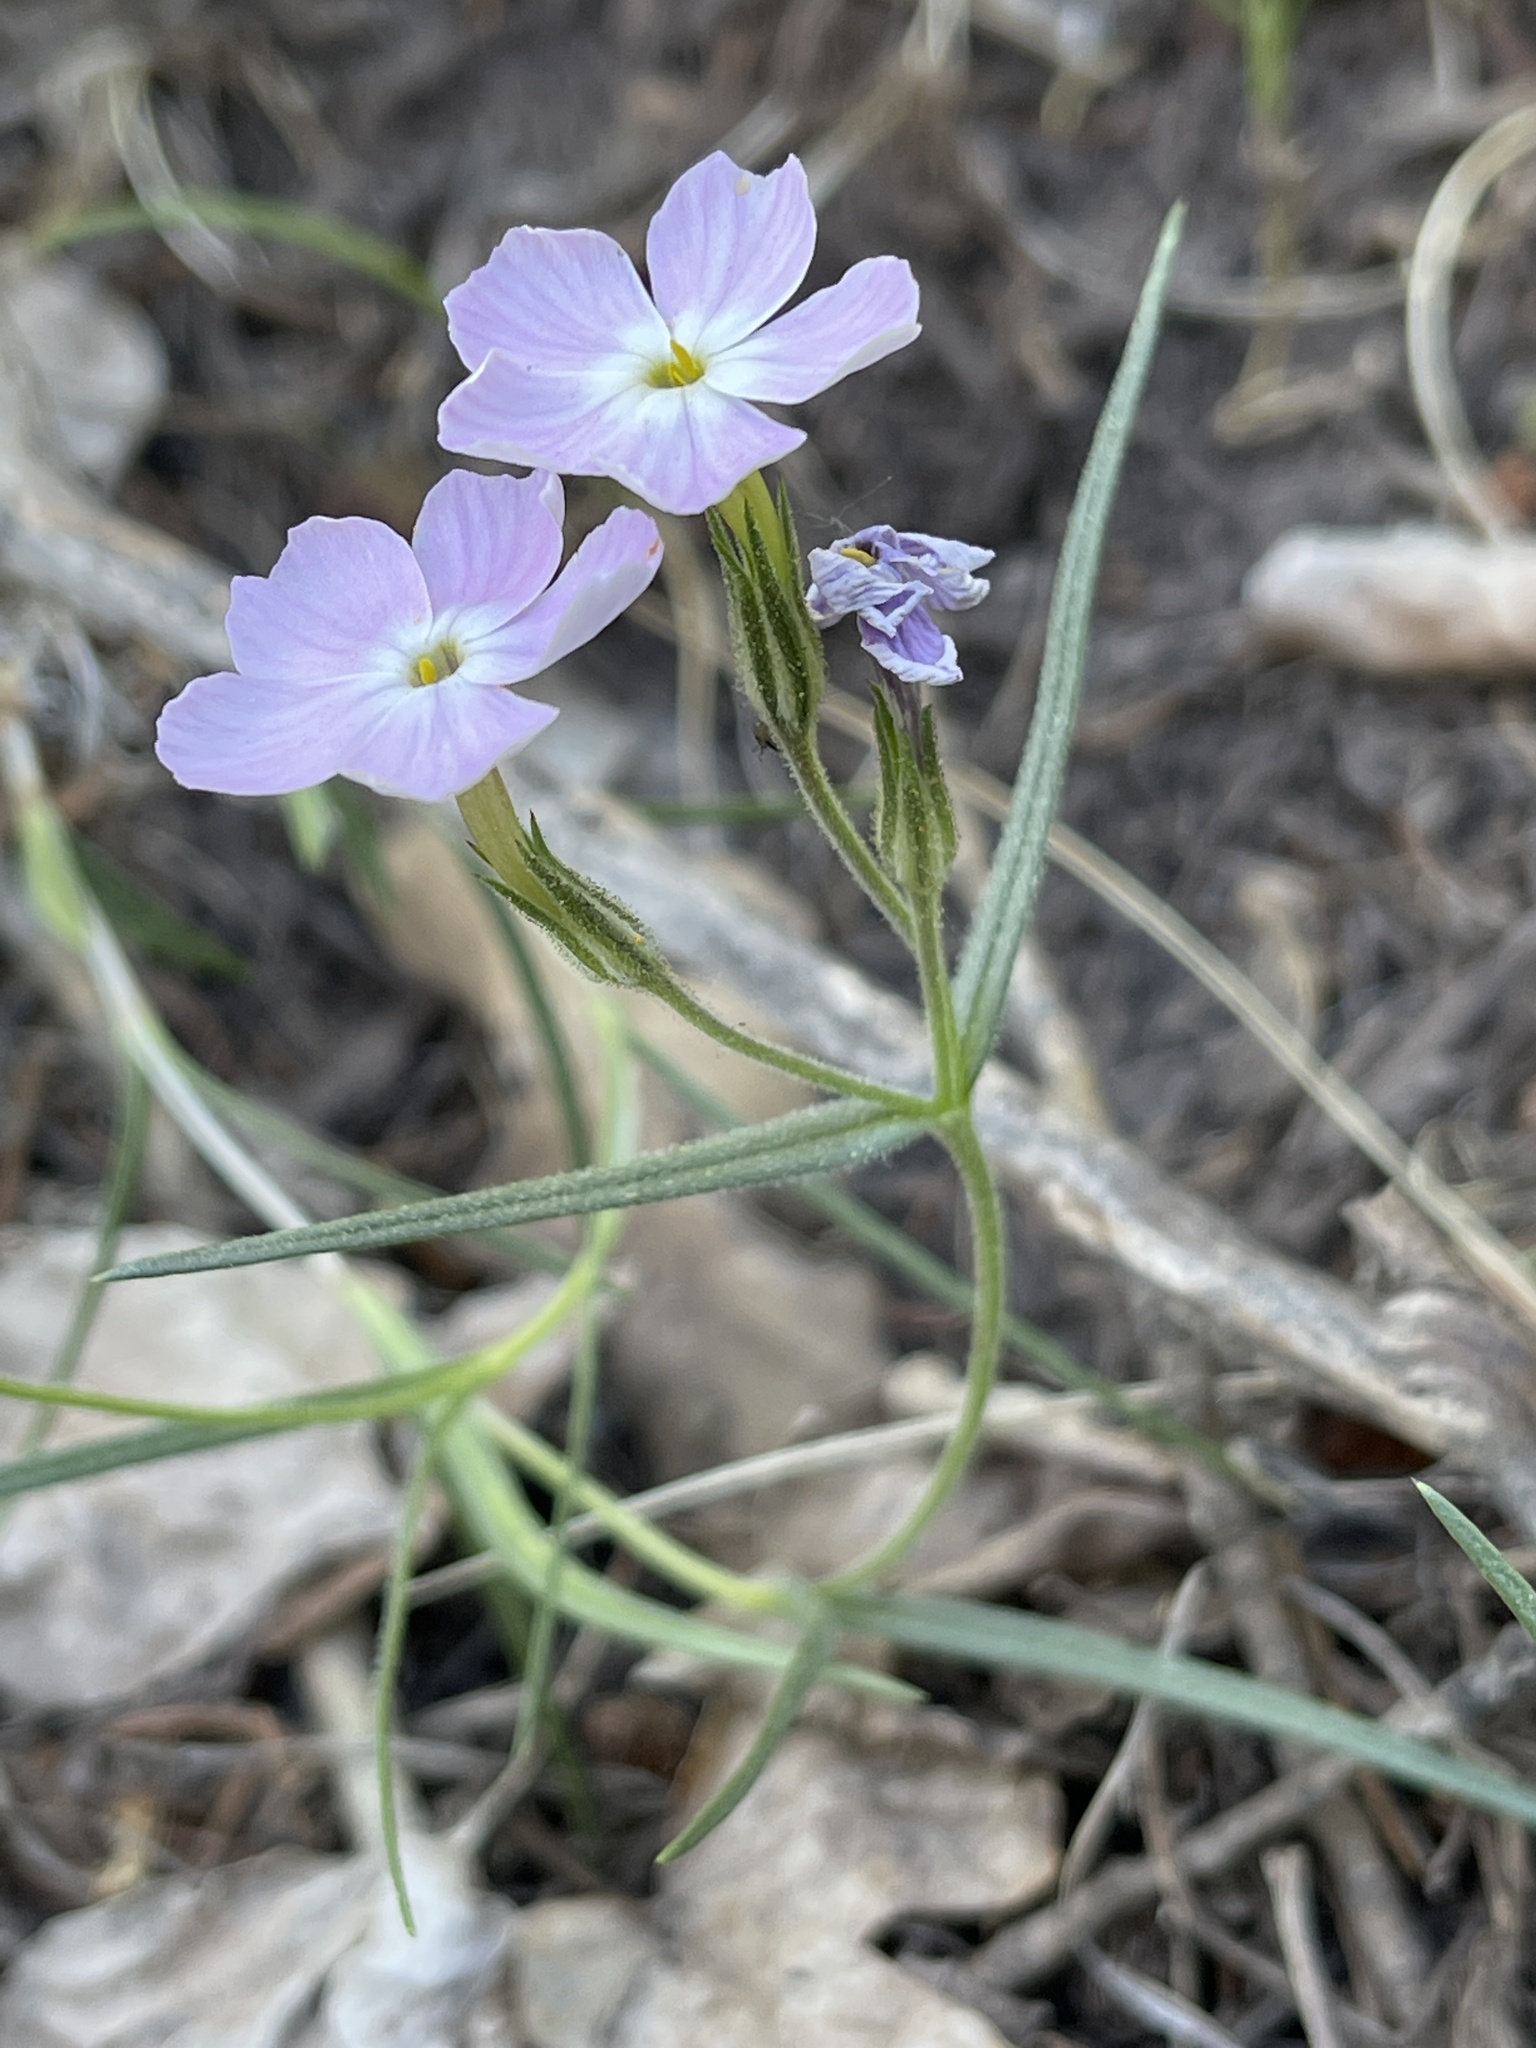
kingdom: Plantae
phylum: Tracheophyta
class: Magnoliopsida
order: Ericales
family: Polemoniaceae
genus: Phlox
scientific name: Phlox longifolia
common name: Longleaf phlox
